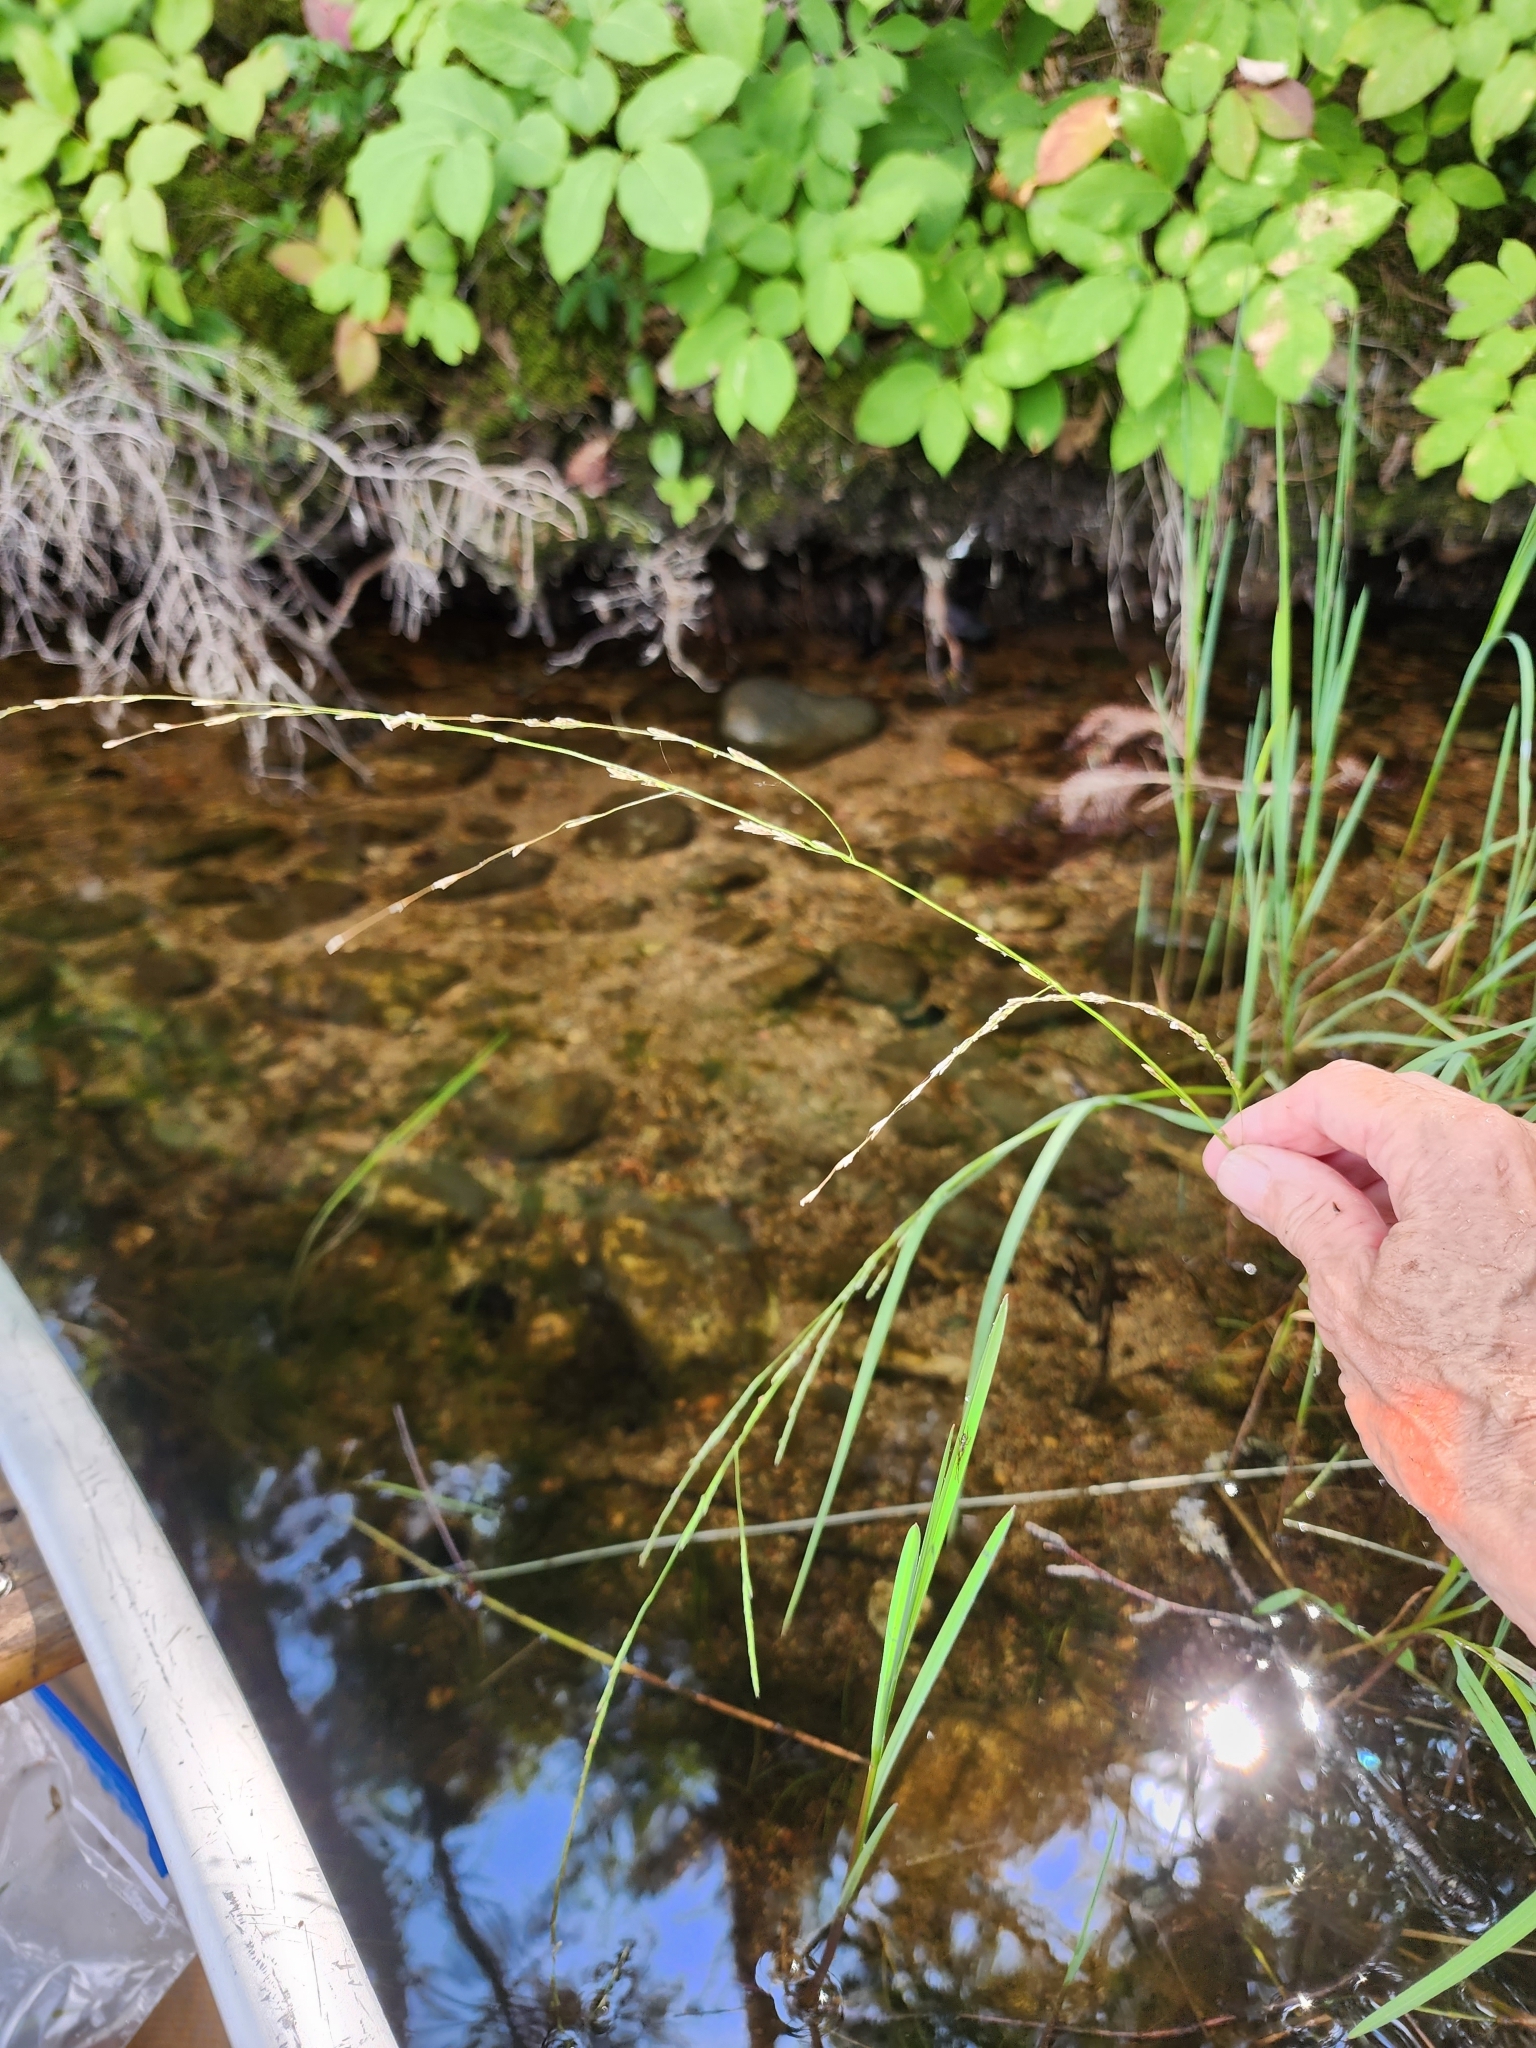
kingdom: Plantae
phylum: Tracheophyta
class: Liliopsida
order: Poales
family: Poaceae
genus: Glyceria
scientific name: Glyceria borealis
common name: Boreal glyceria
